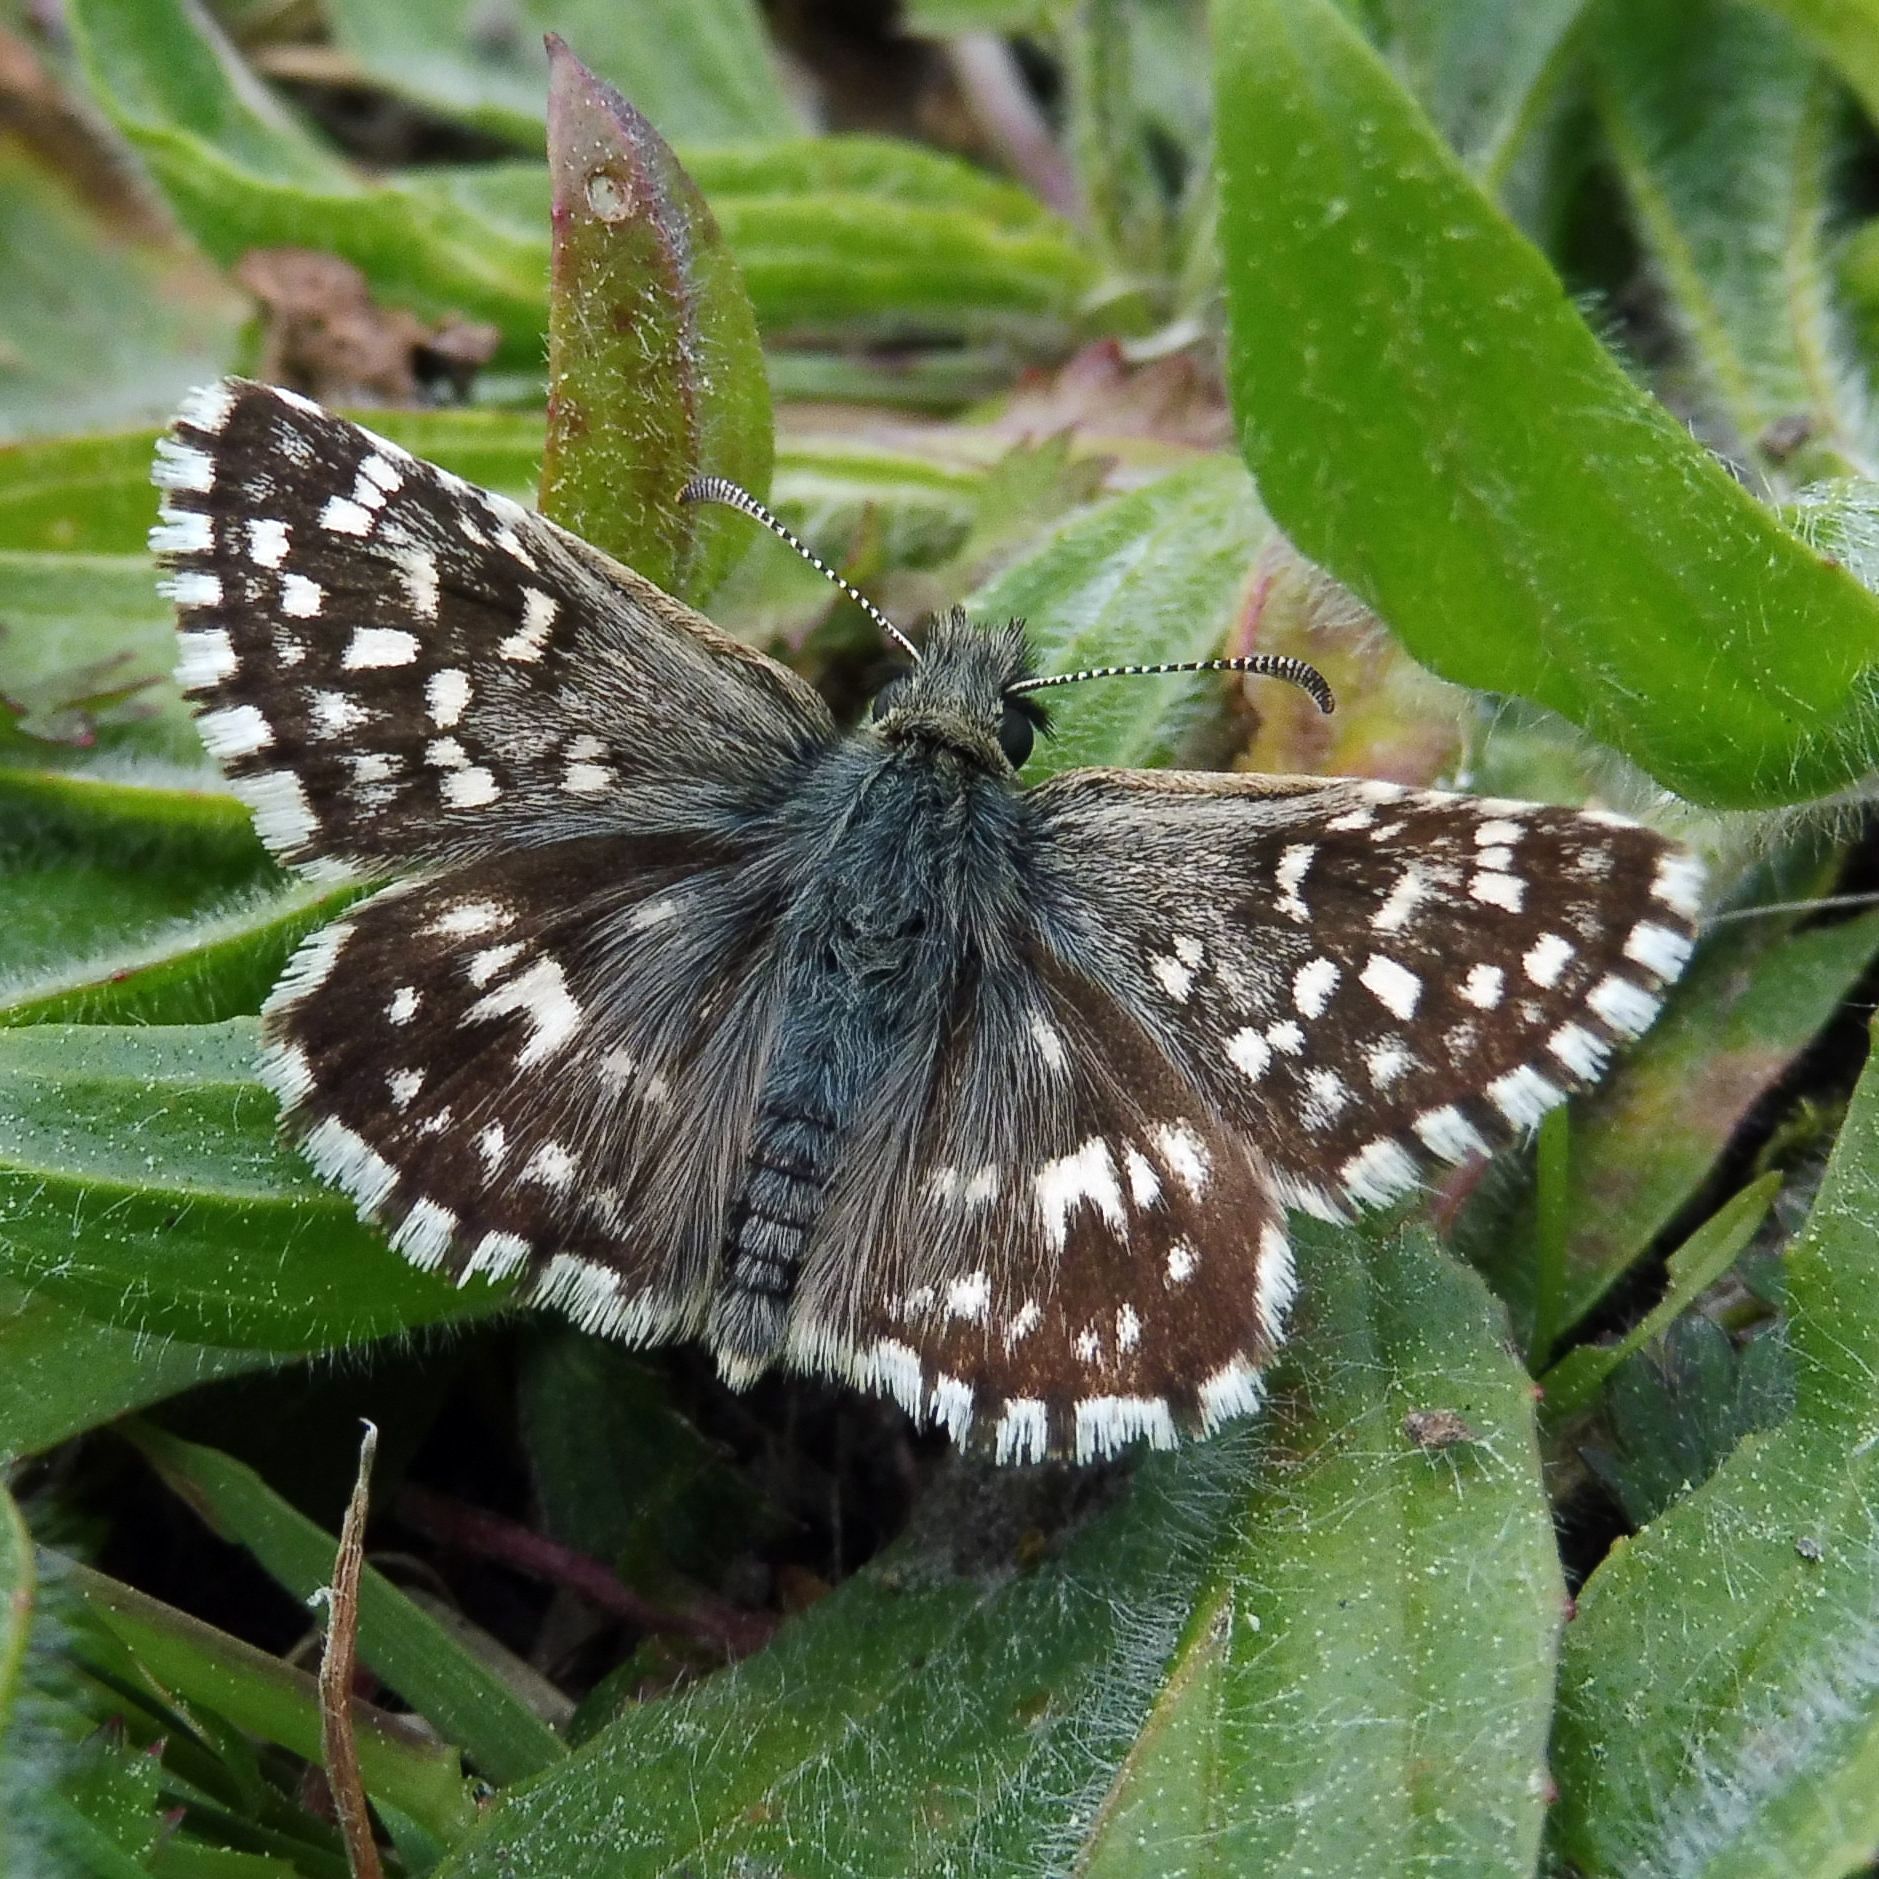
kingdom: Animalia
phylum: Arthropoda
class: Insecta
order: Lepidoptera
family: Hesperiidae
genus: Pyrgus
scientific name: Pyrgus malvae
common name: Grizzled skipper
